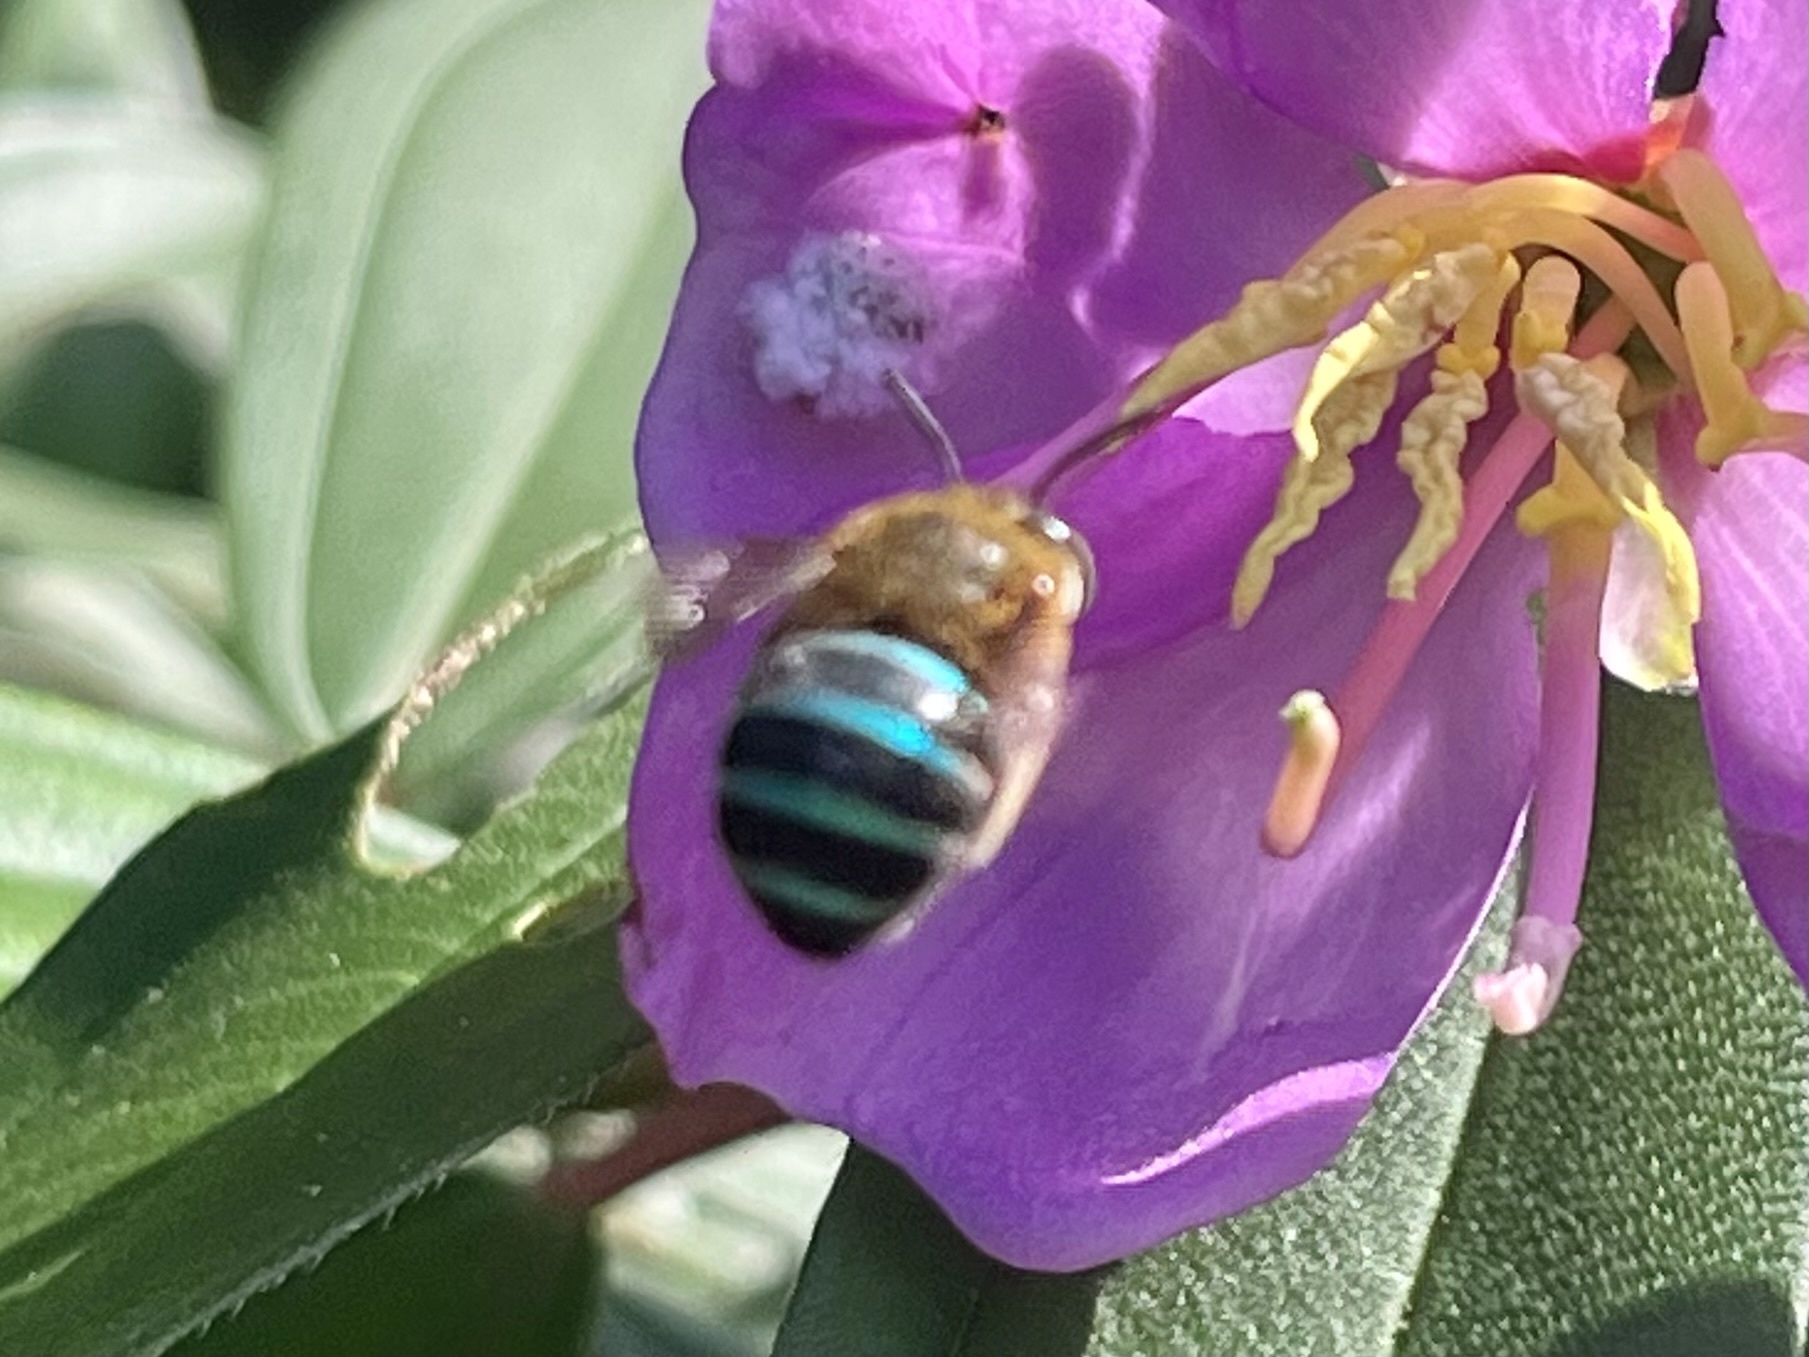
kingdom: Animalia
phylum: Arthropoda
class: Insecta
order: Hymenoptera
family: Apidae
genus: Amegilla
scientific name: Amegilla andrewsi
